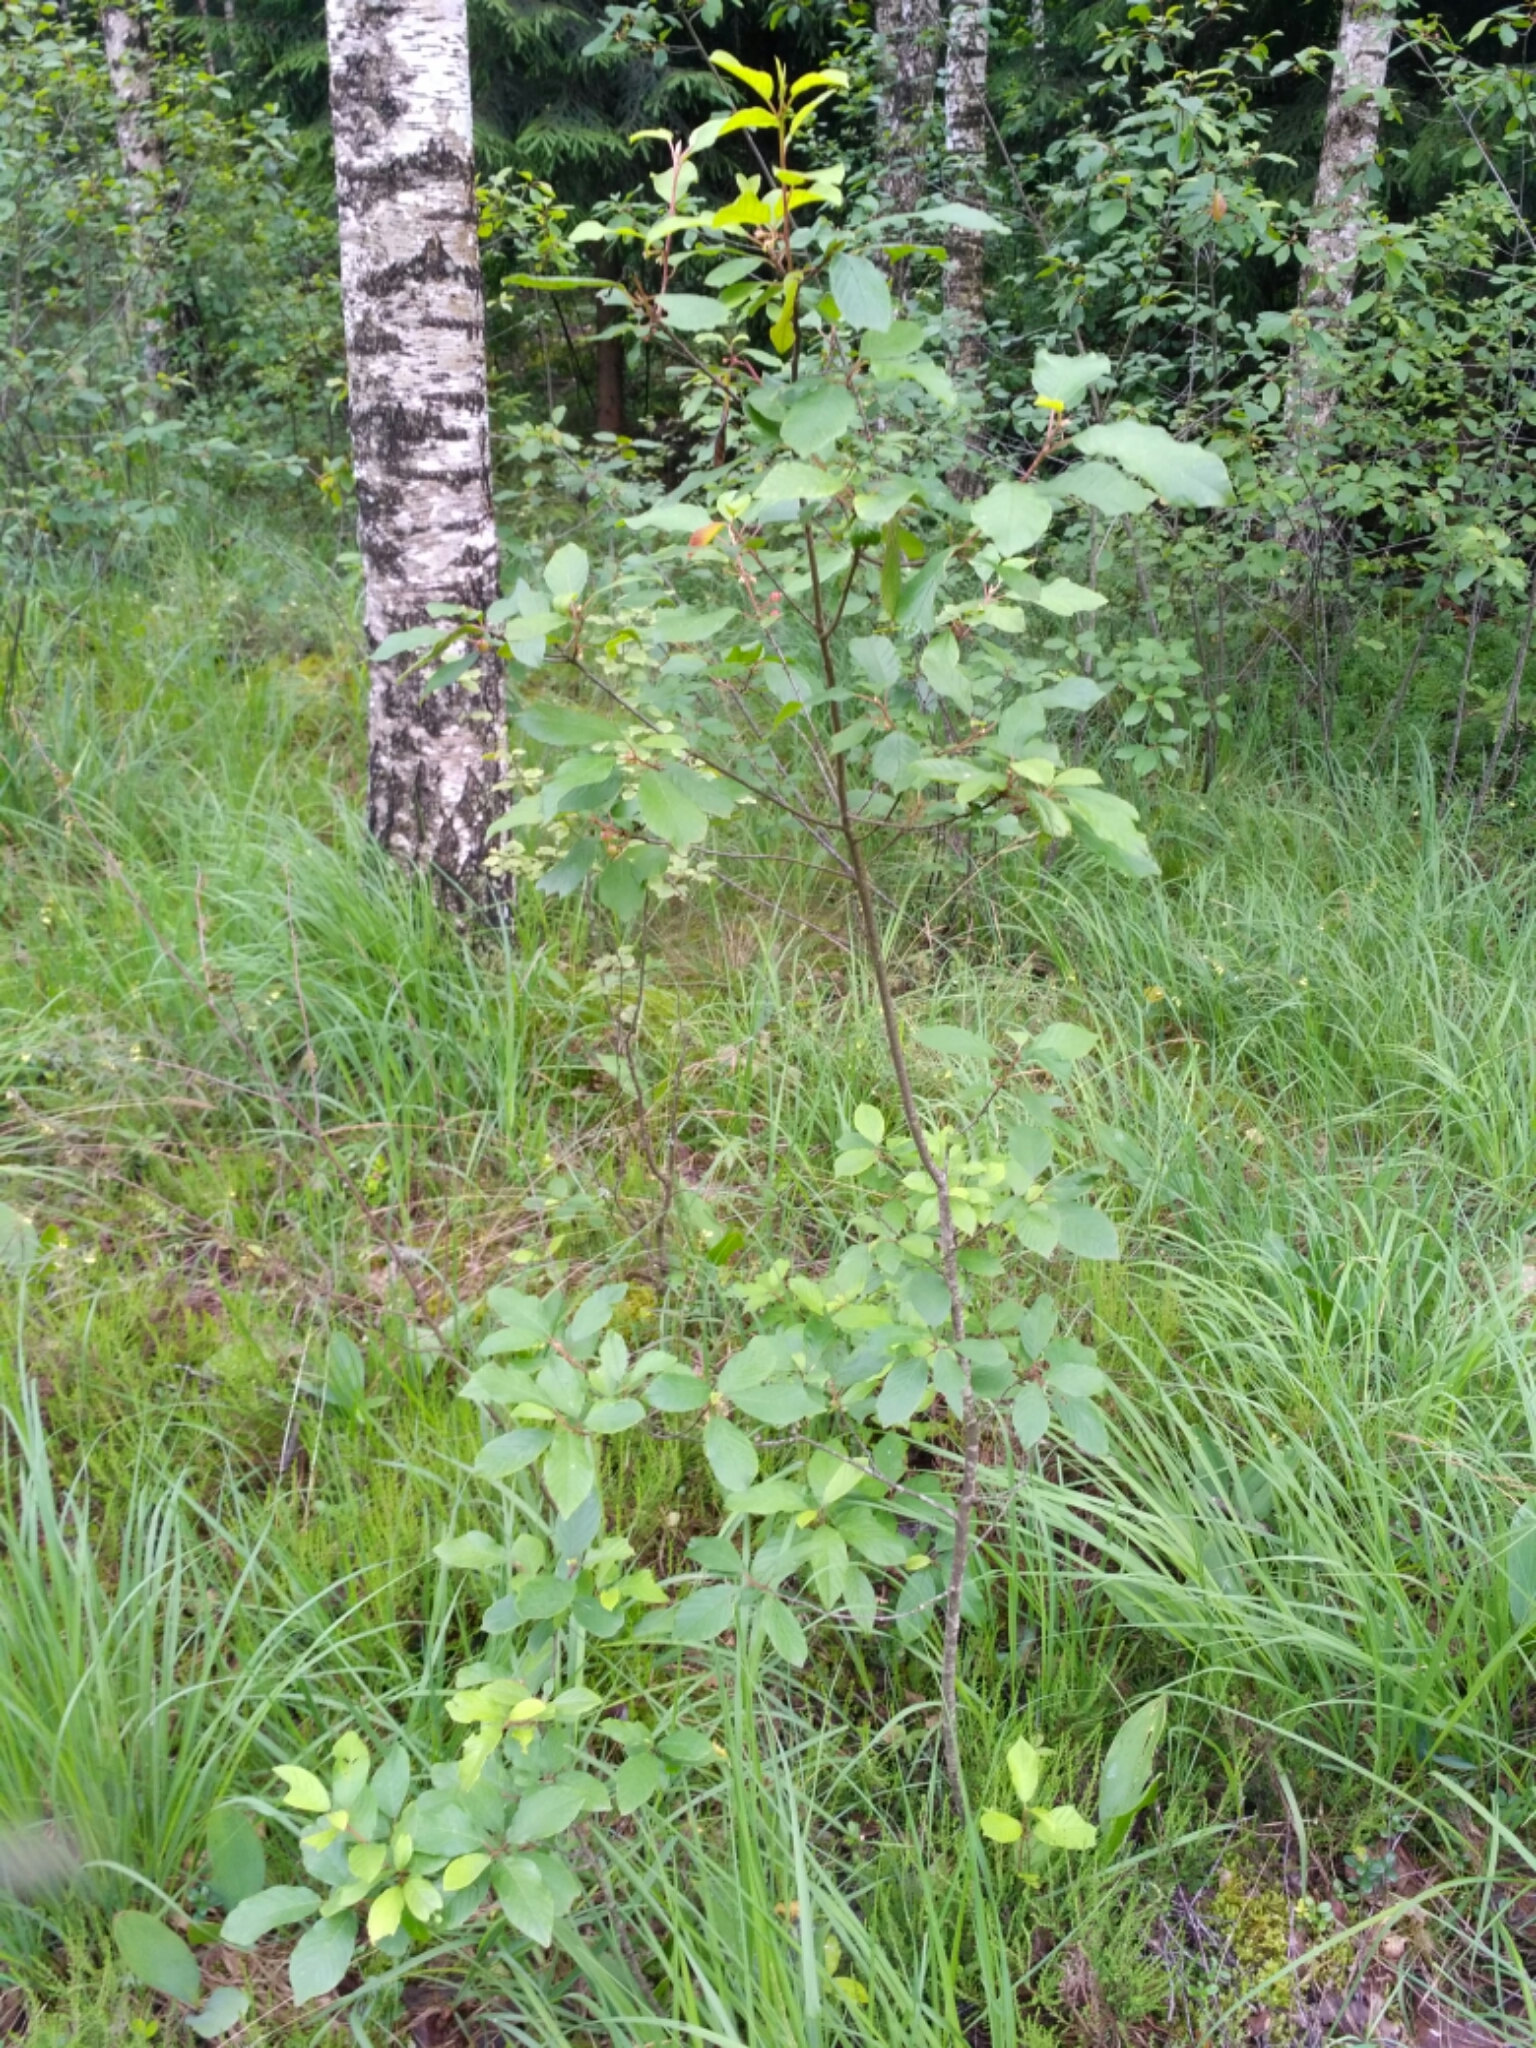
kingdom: Plantae
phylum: Tracheophyta
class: Magnoliopsida
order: Rosales
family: Rhamnaceae
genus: Frangula
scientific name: Frangula alnus
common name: Alder buckthorn
